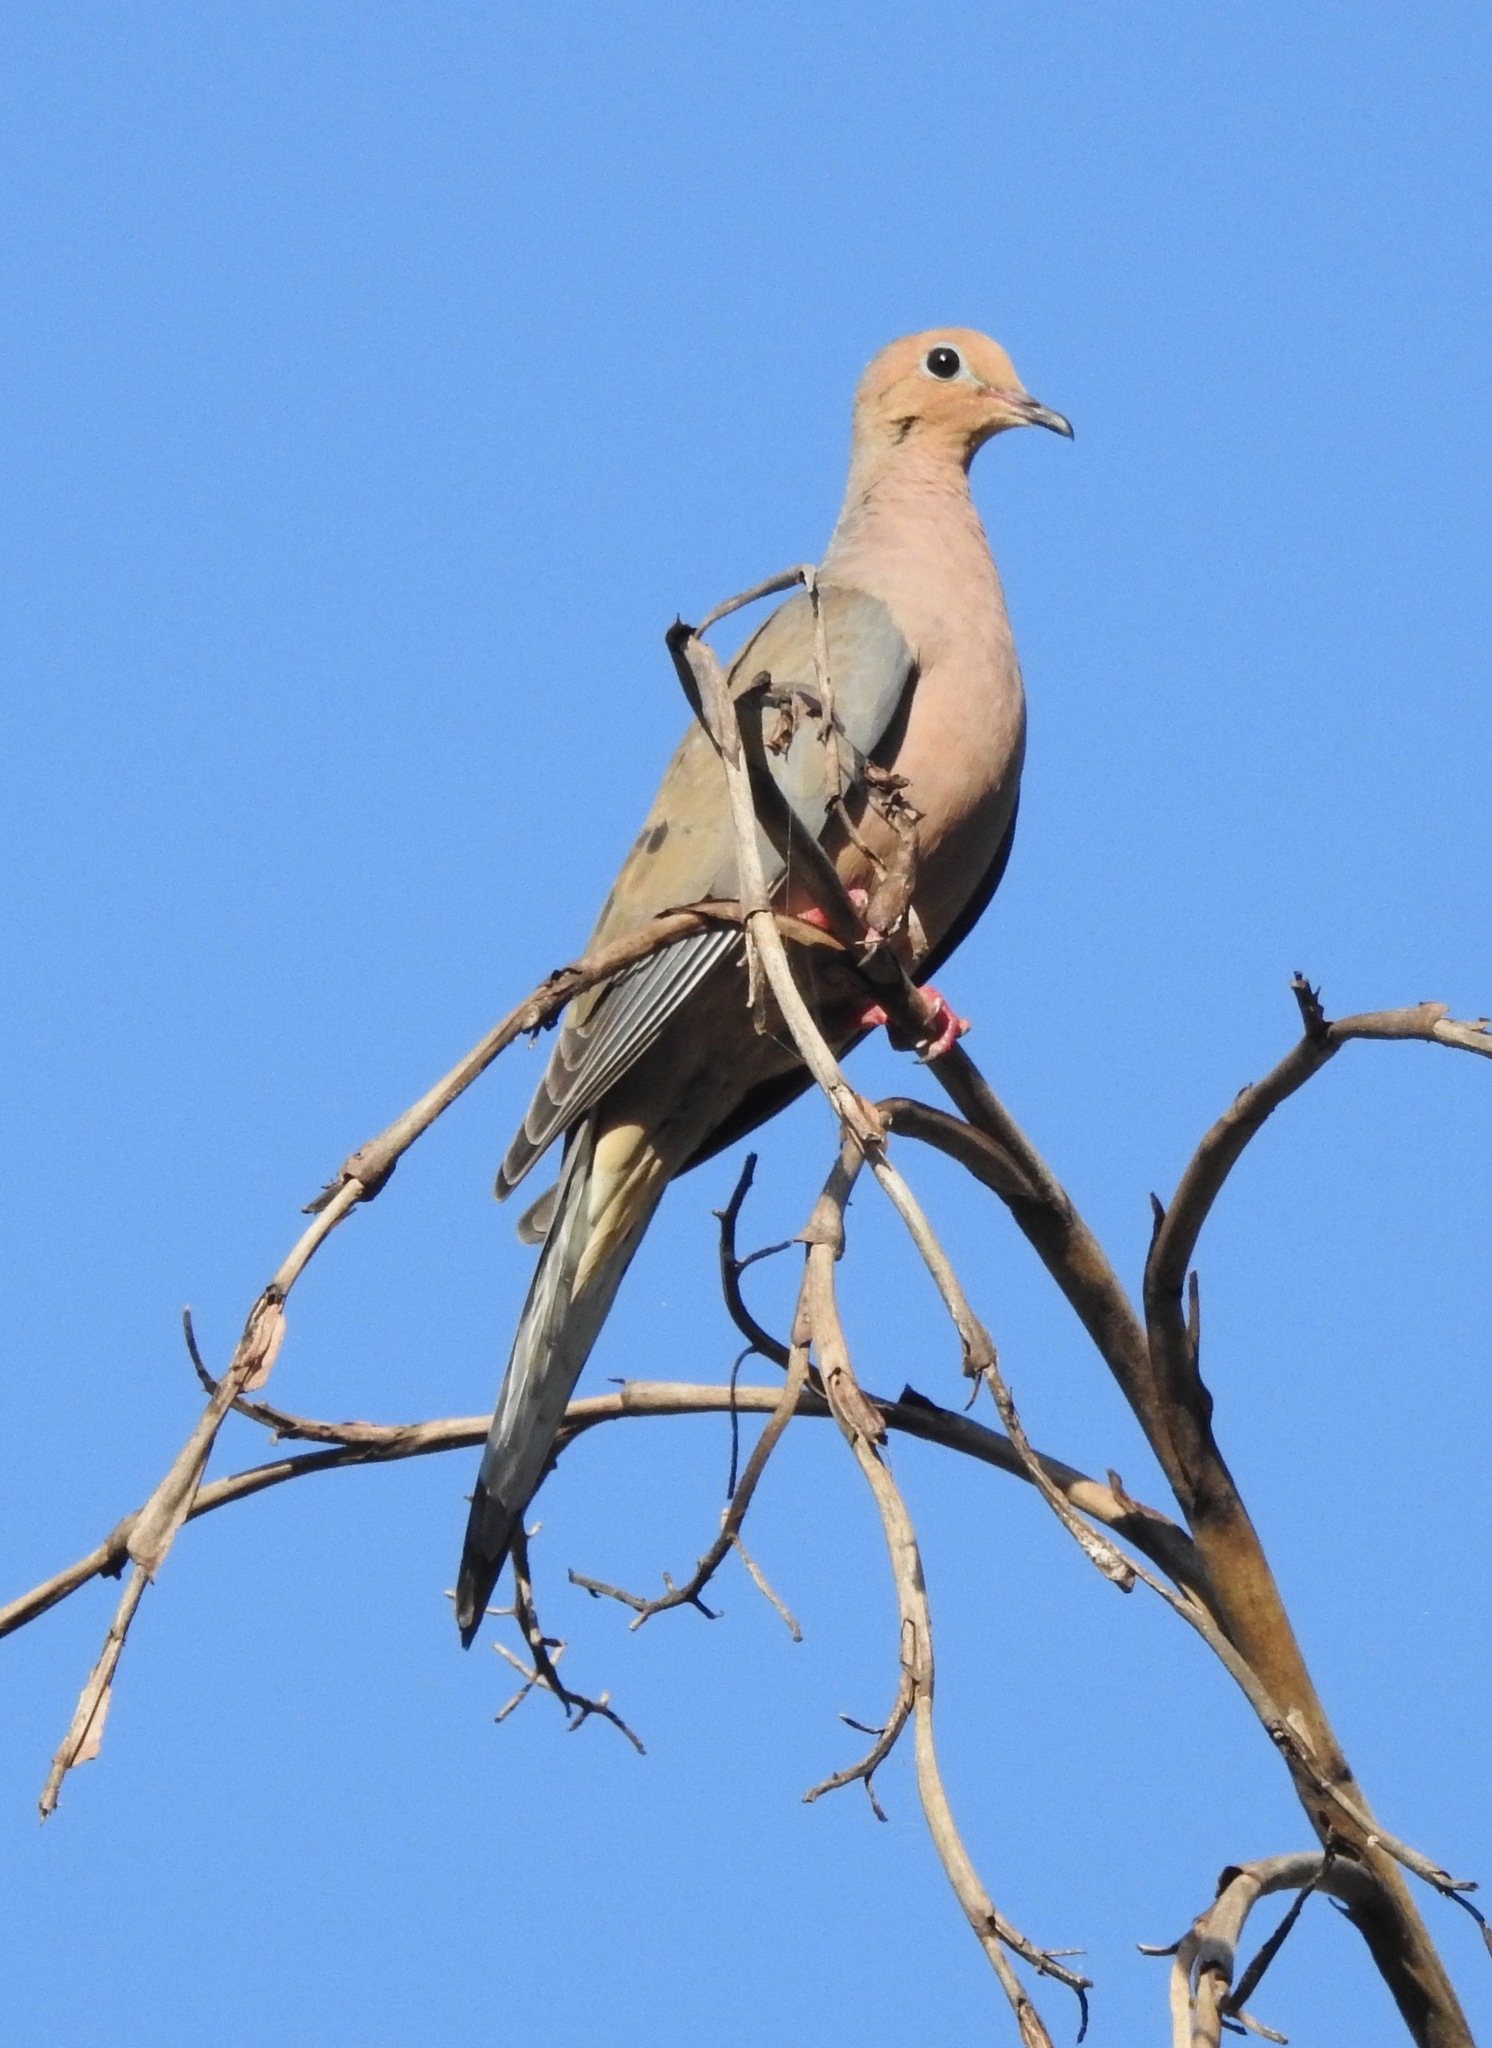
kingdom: Animalia
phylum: Chordata
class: Aves
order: Columbiformes
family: Columbidae
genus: Zenaida
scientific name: Zenaida macroura
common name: Mourning dove
